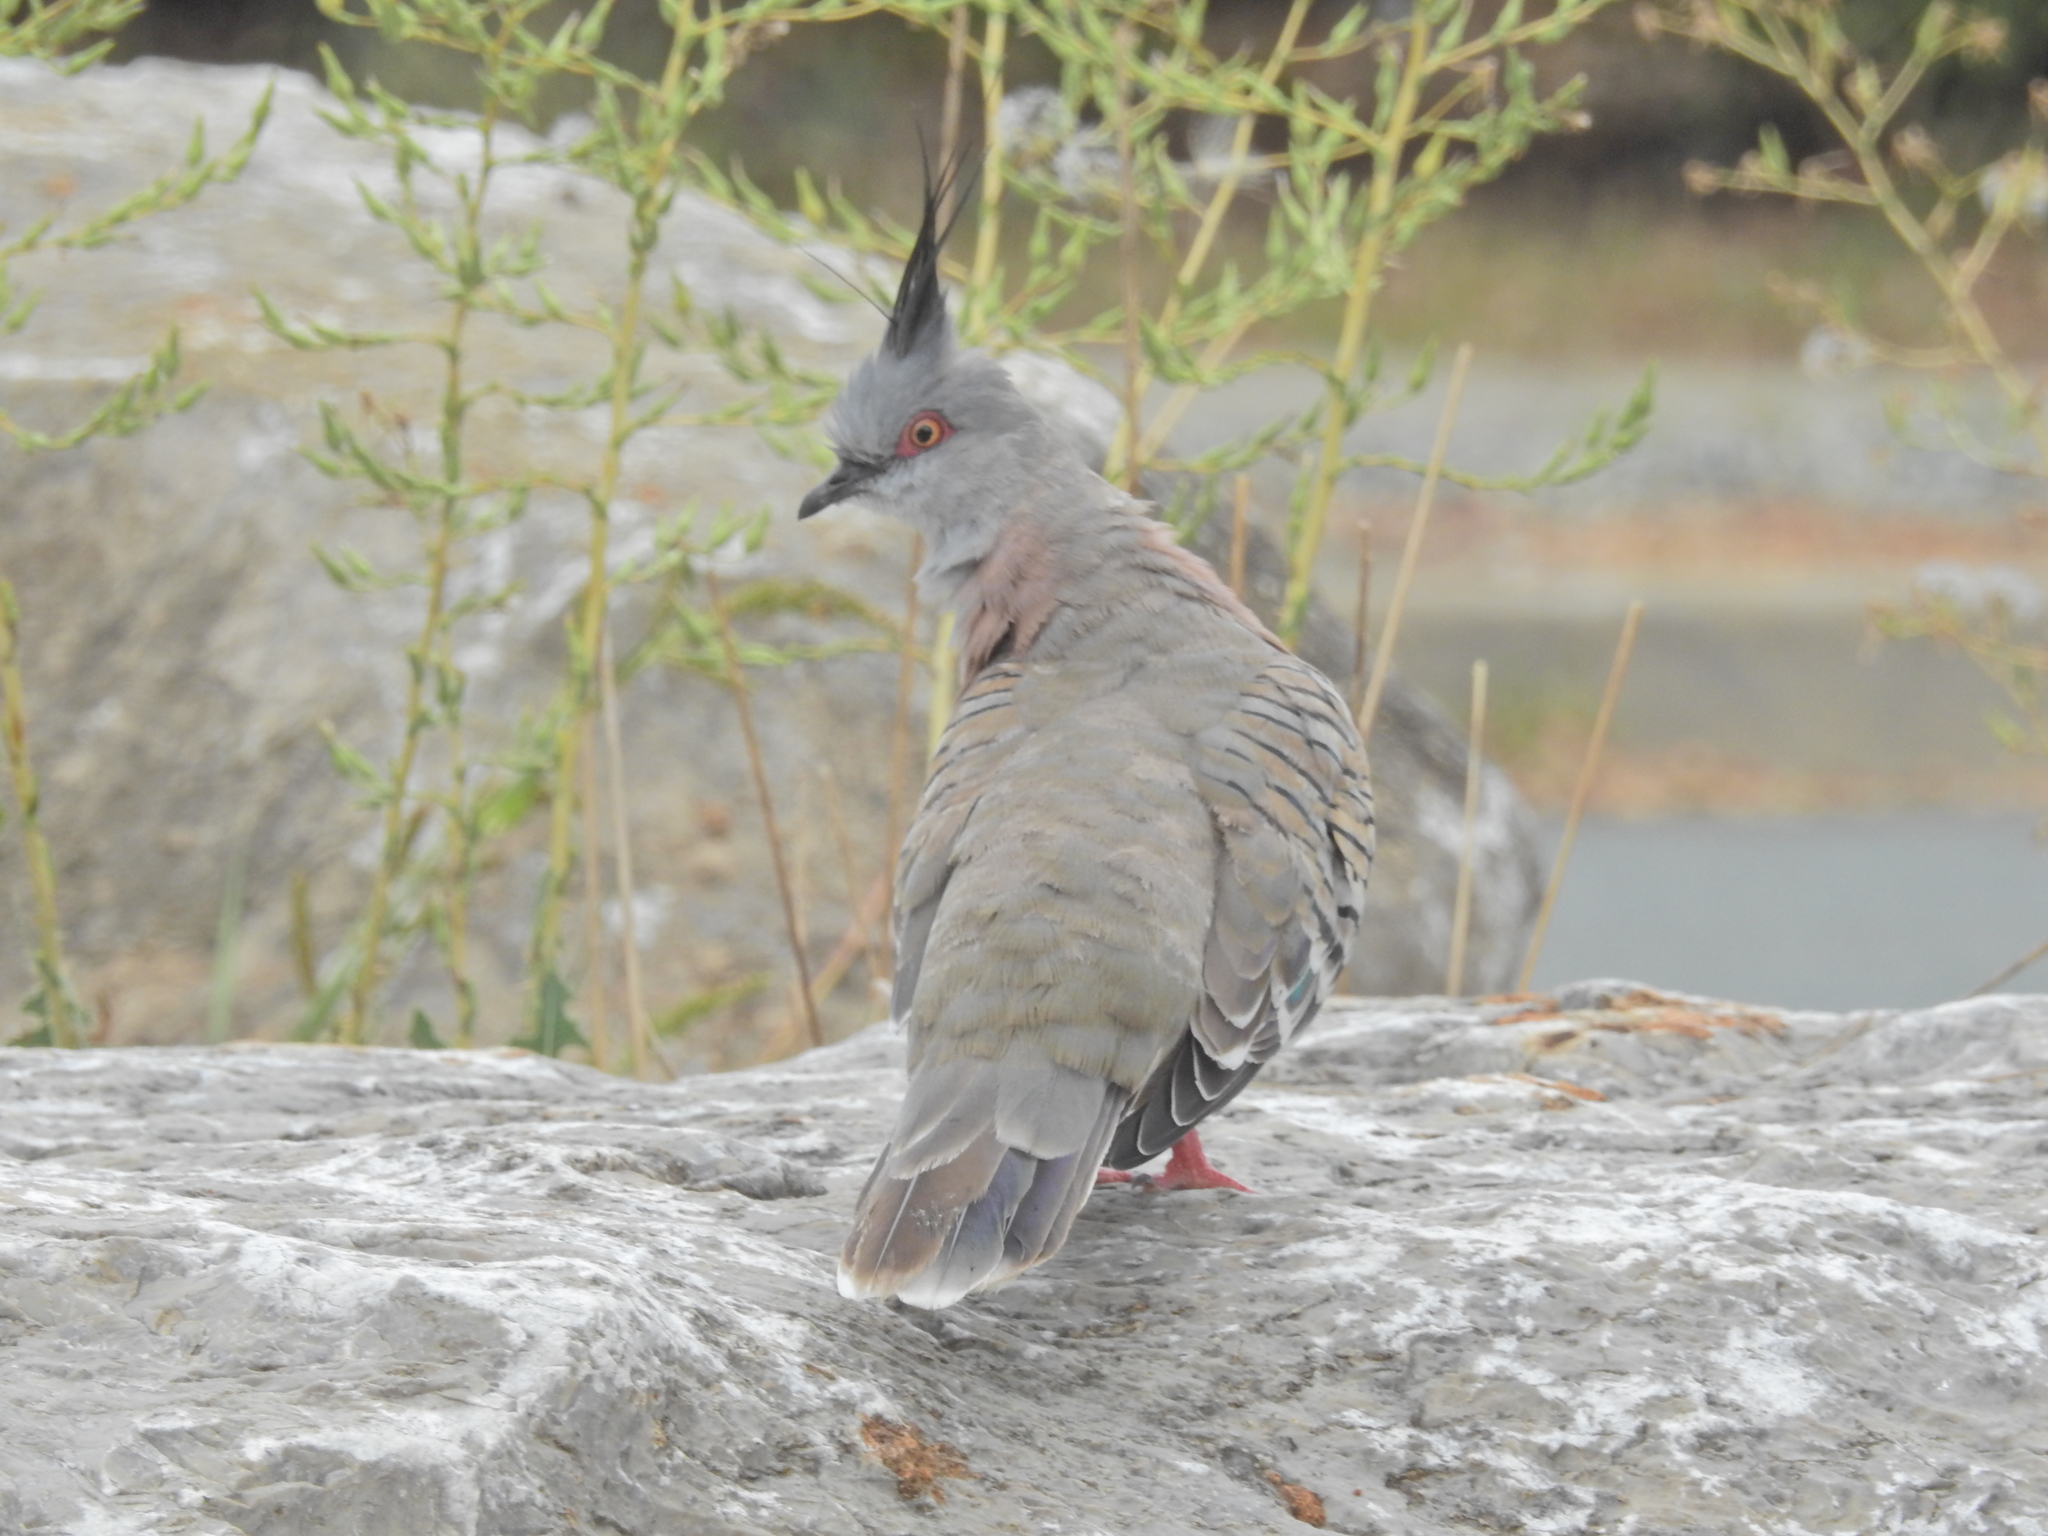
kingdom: Animalia
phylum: Chordata
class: Aves
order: Columbiformes
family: Columbidae
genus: Ocyphaps
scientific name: Ocyphaps lophotes
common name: Crested pigeon
